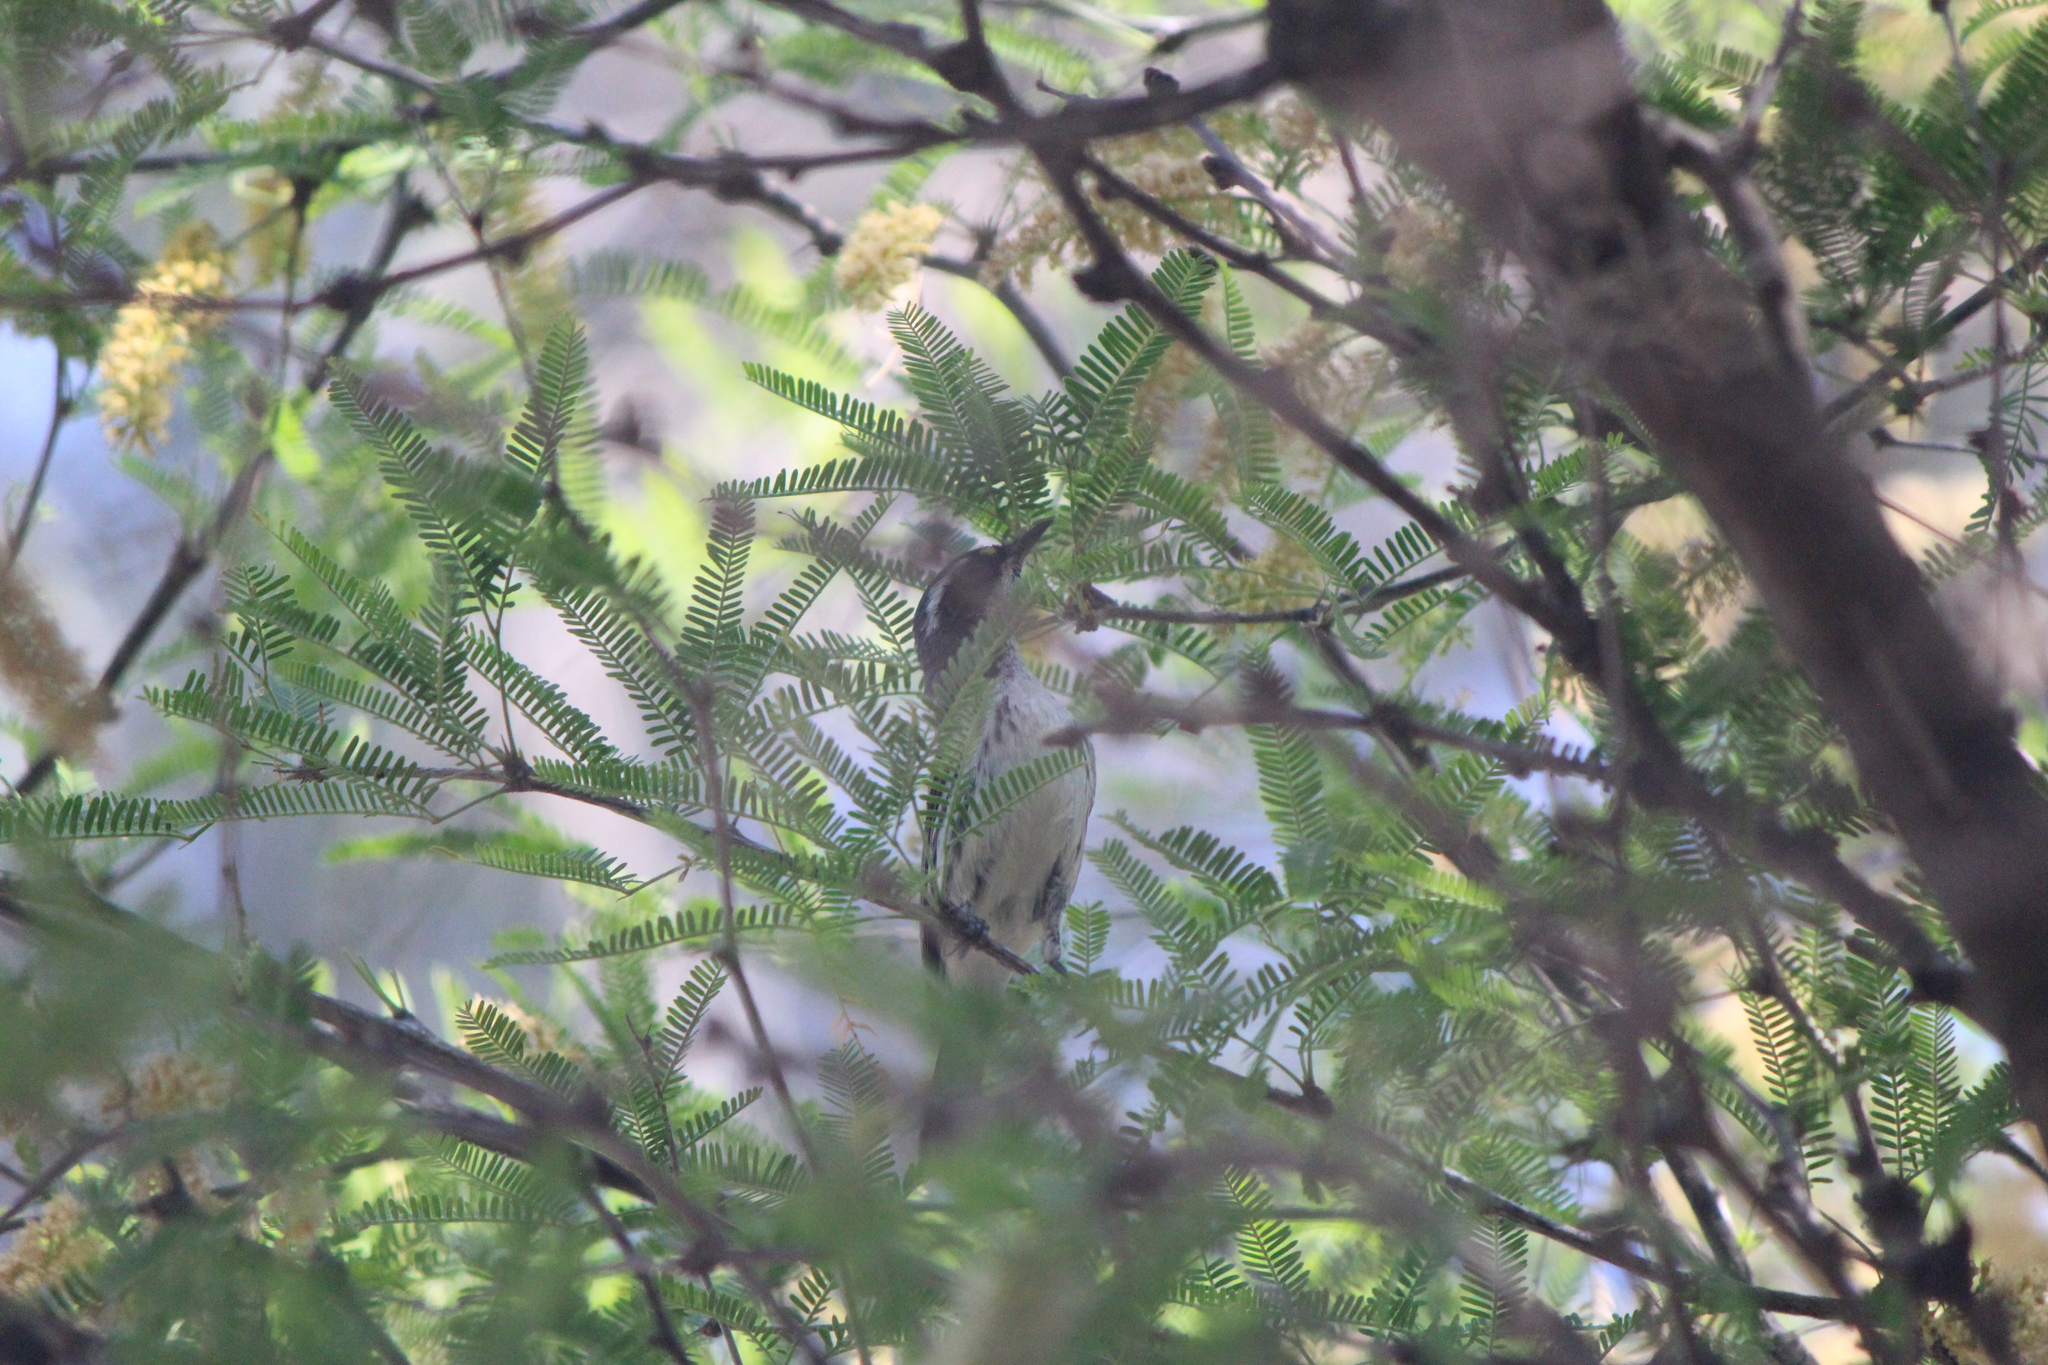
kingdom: Animalia
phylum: Chordata
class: Aves
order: Passeriformes
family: Parulidae
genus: Setophaga
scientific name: Setophaga nigrescens
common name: Black-throated gray warbler
